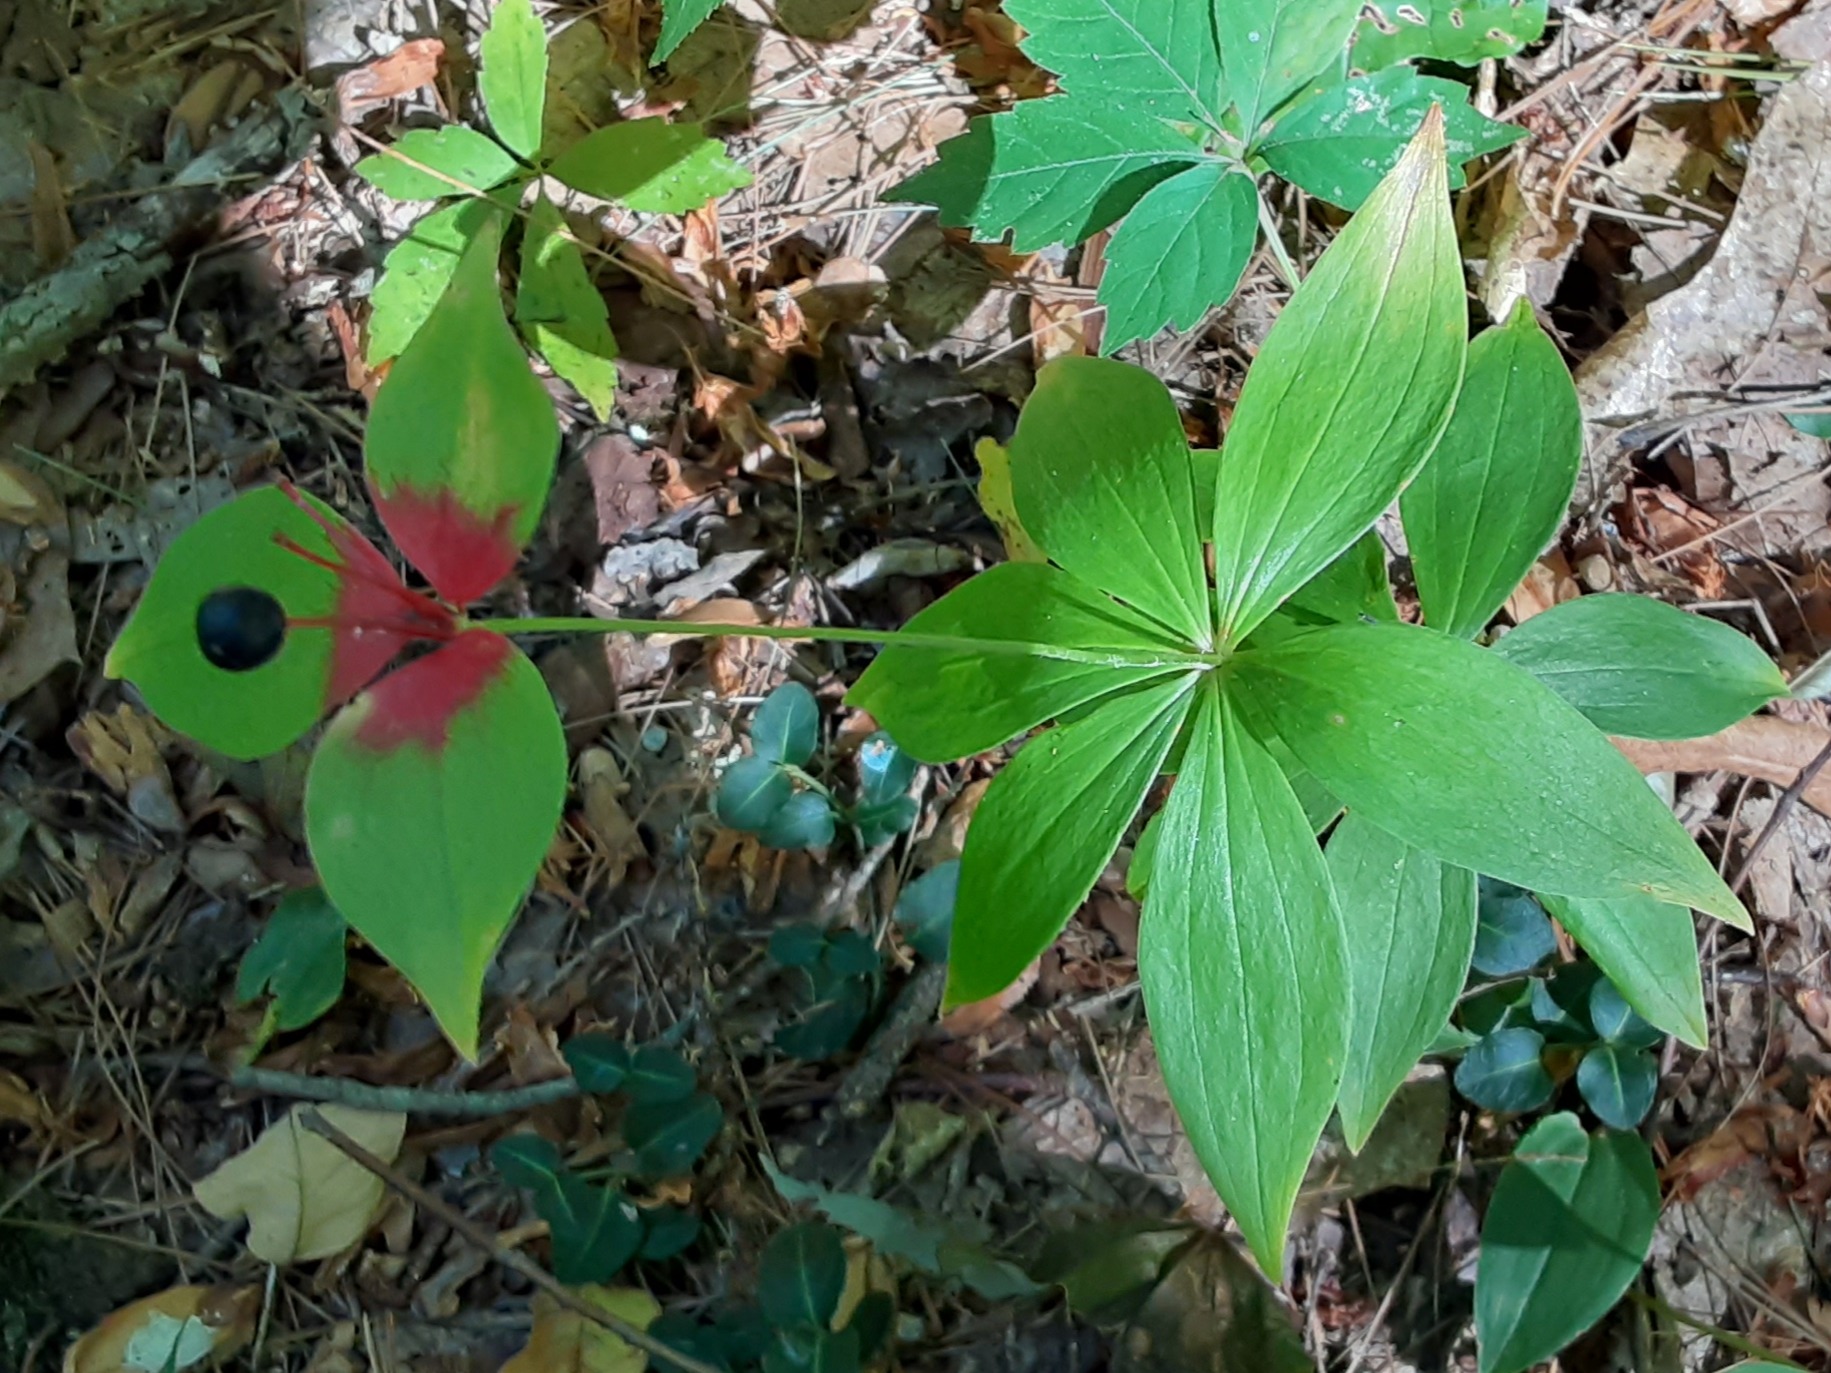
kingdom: Plantae
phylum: Tracheophyta
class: Liliopsida
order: Liliales
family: Liliaceae
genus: Medeola
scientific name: Medeola virginiana
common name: Indian cucumber-root
